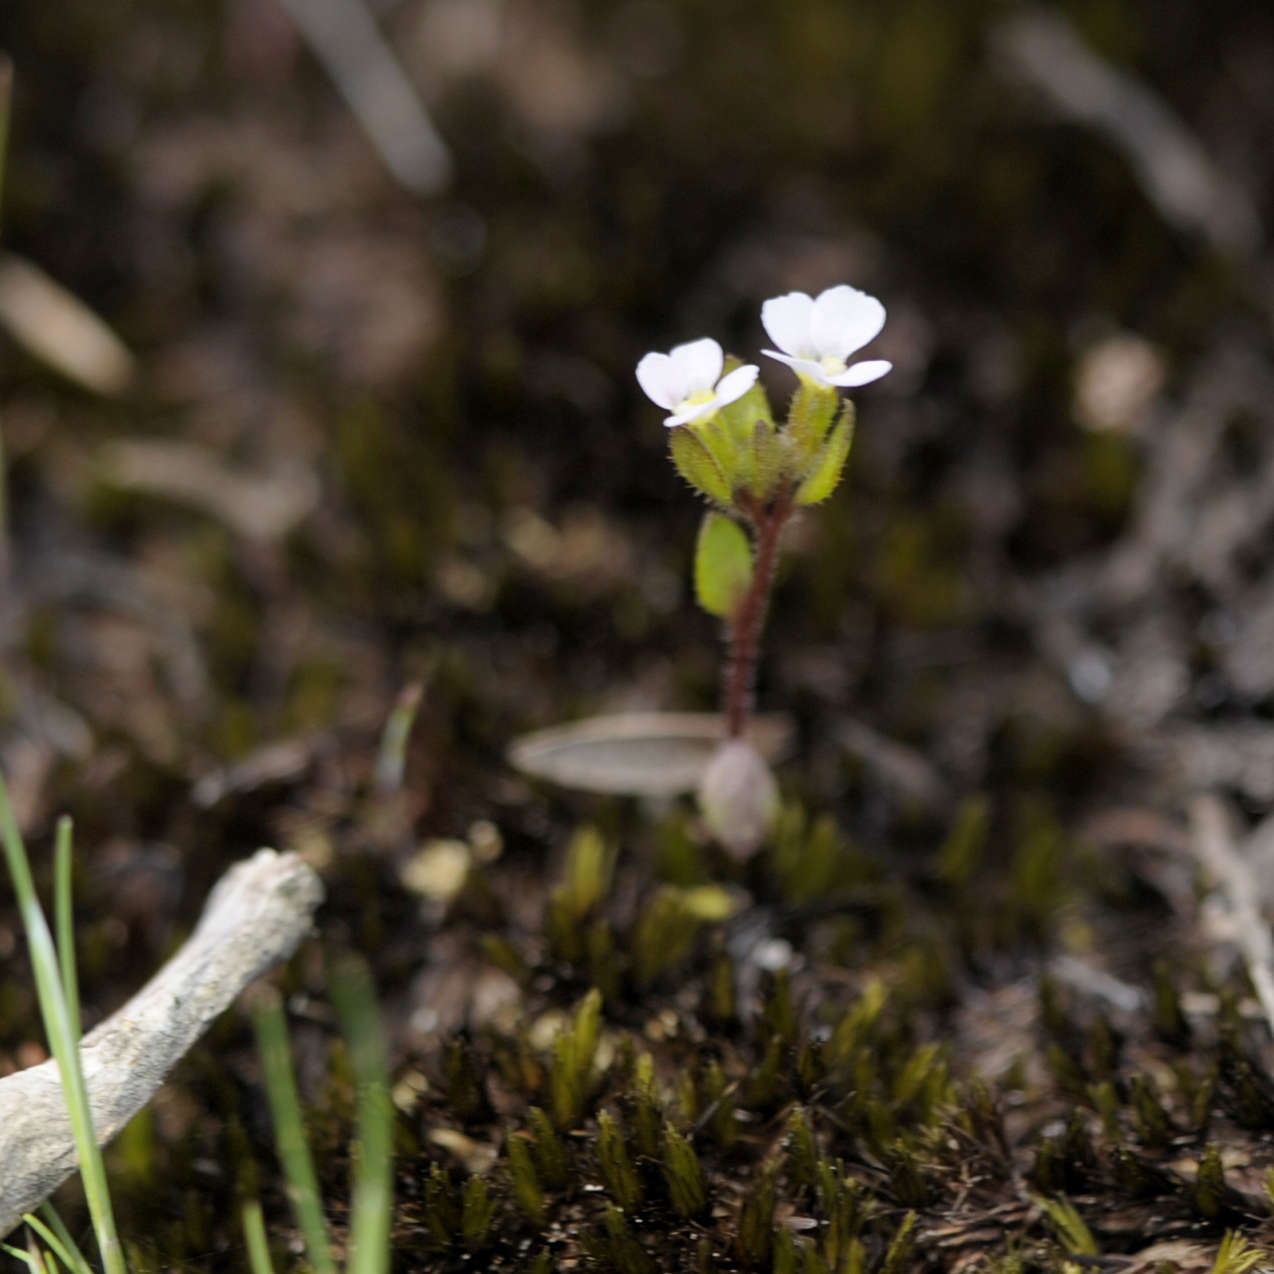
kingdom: Plantae
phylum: Tracheophyta
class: Magnoliopsida
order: Asterales
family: Stylidiaceae
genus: Levenhookia
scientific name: Levenhookia dubia
